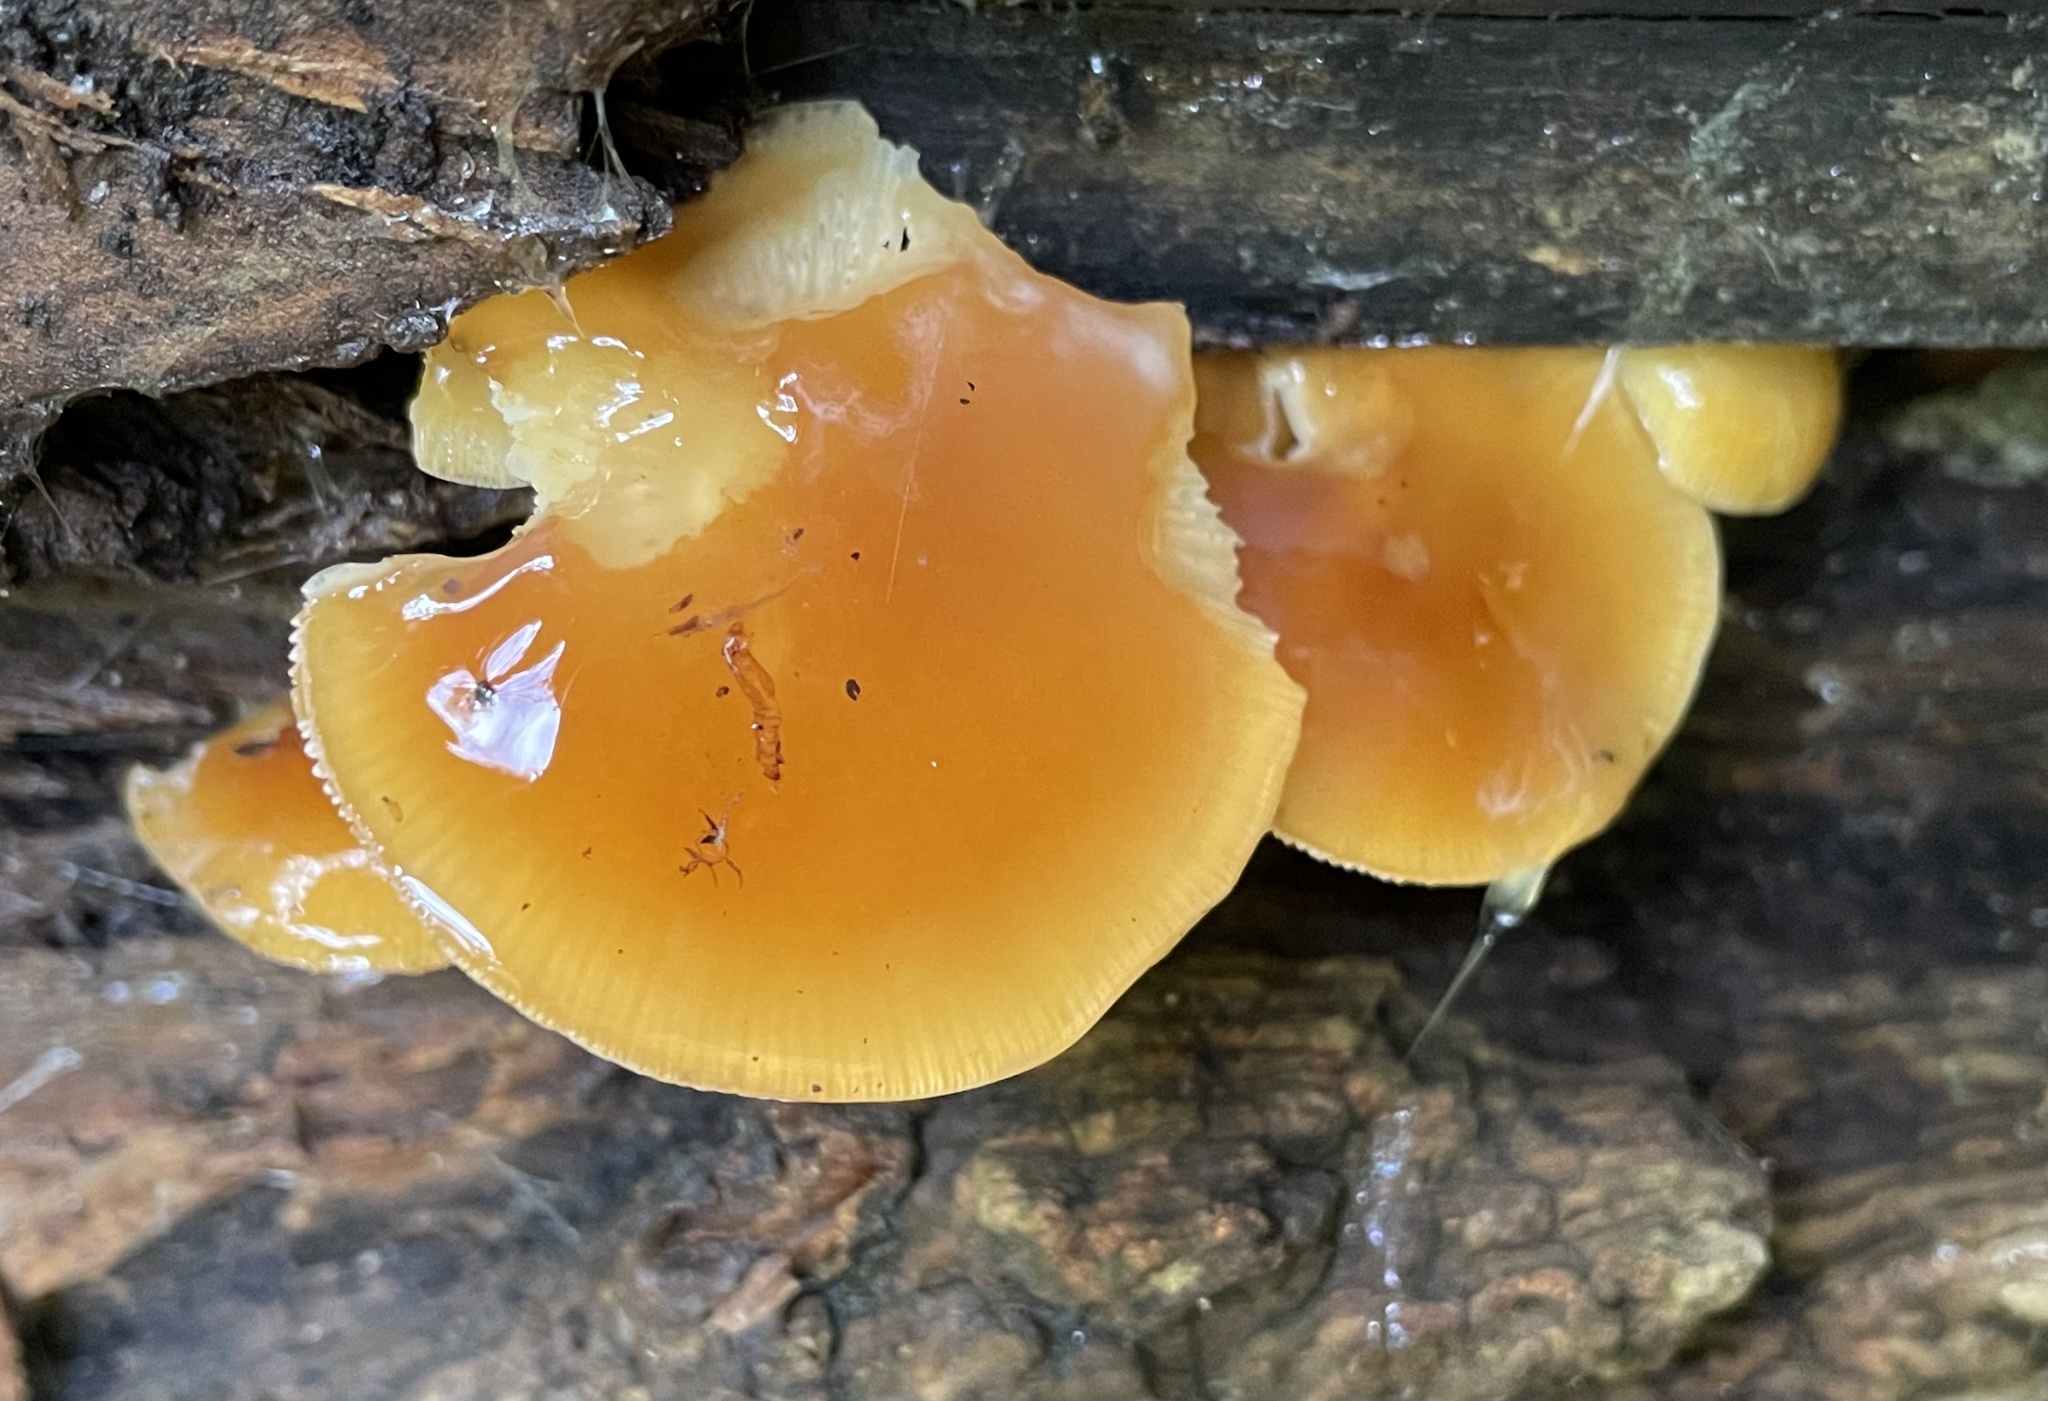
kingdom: Fungi
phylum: Basidiomycota
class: Agaricomycetes
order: Agaricales
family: Physalacriaceae
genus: Flammulina
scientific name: Flammulina velutipes
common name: Velvet shank
